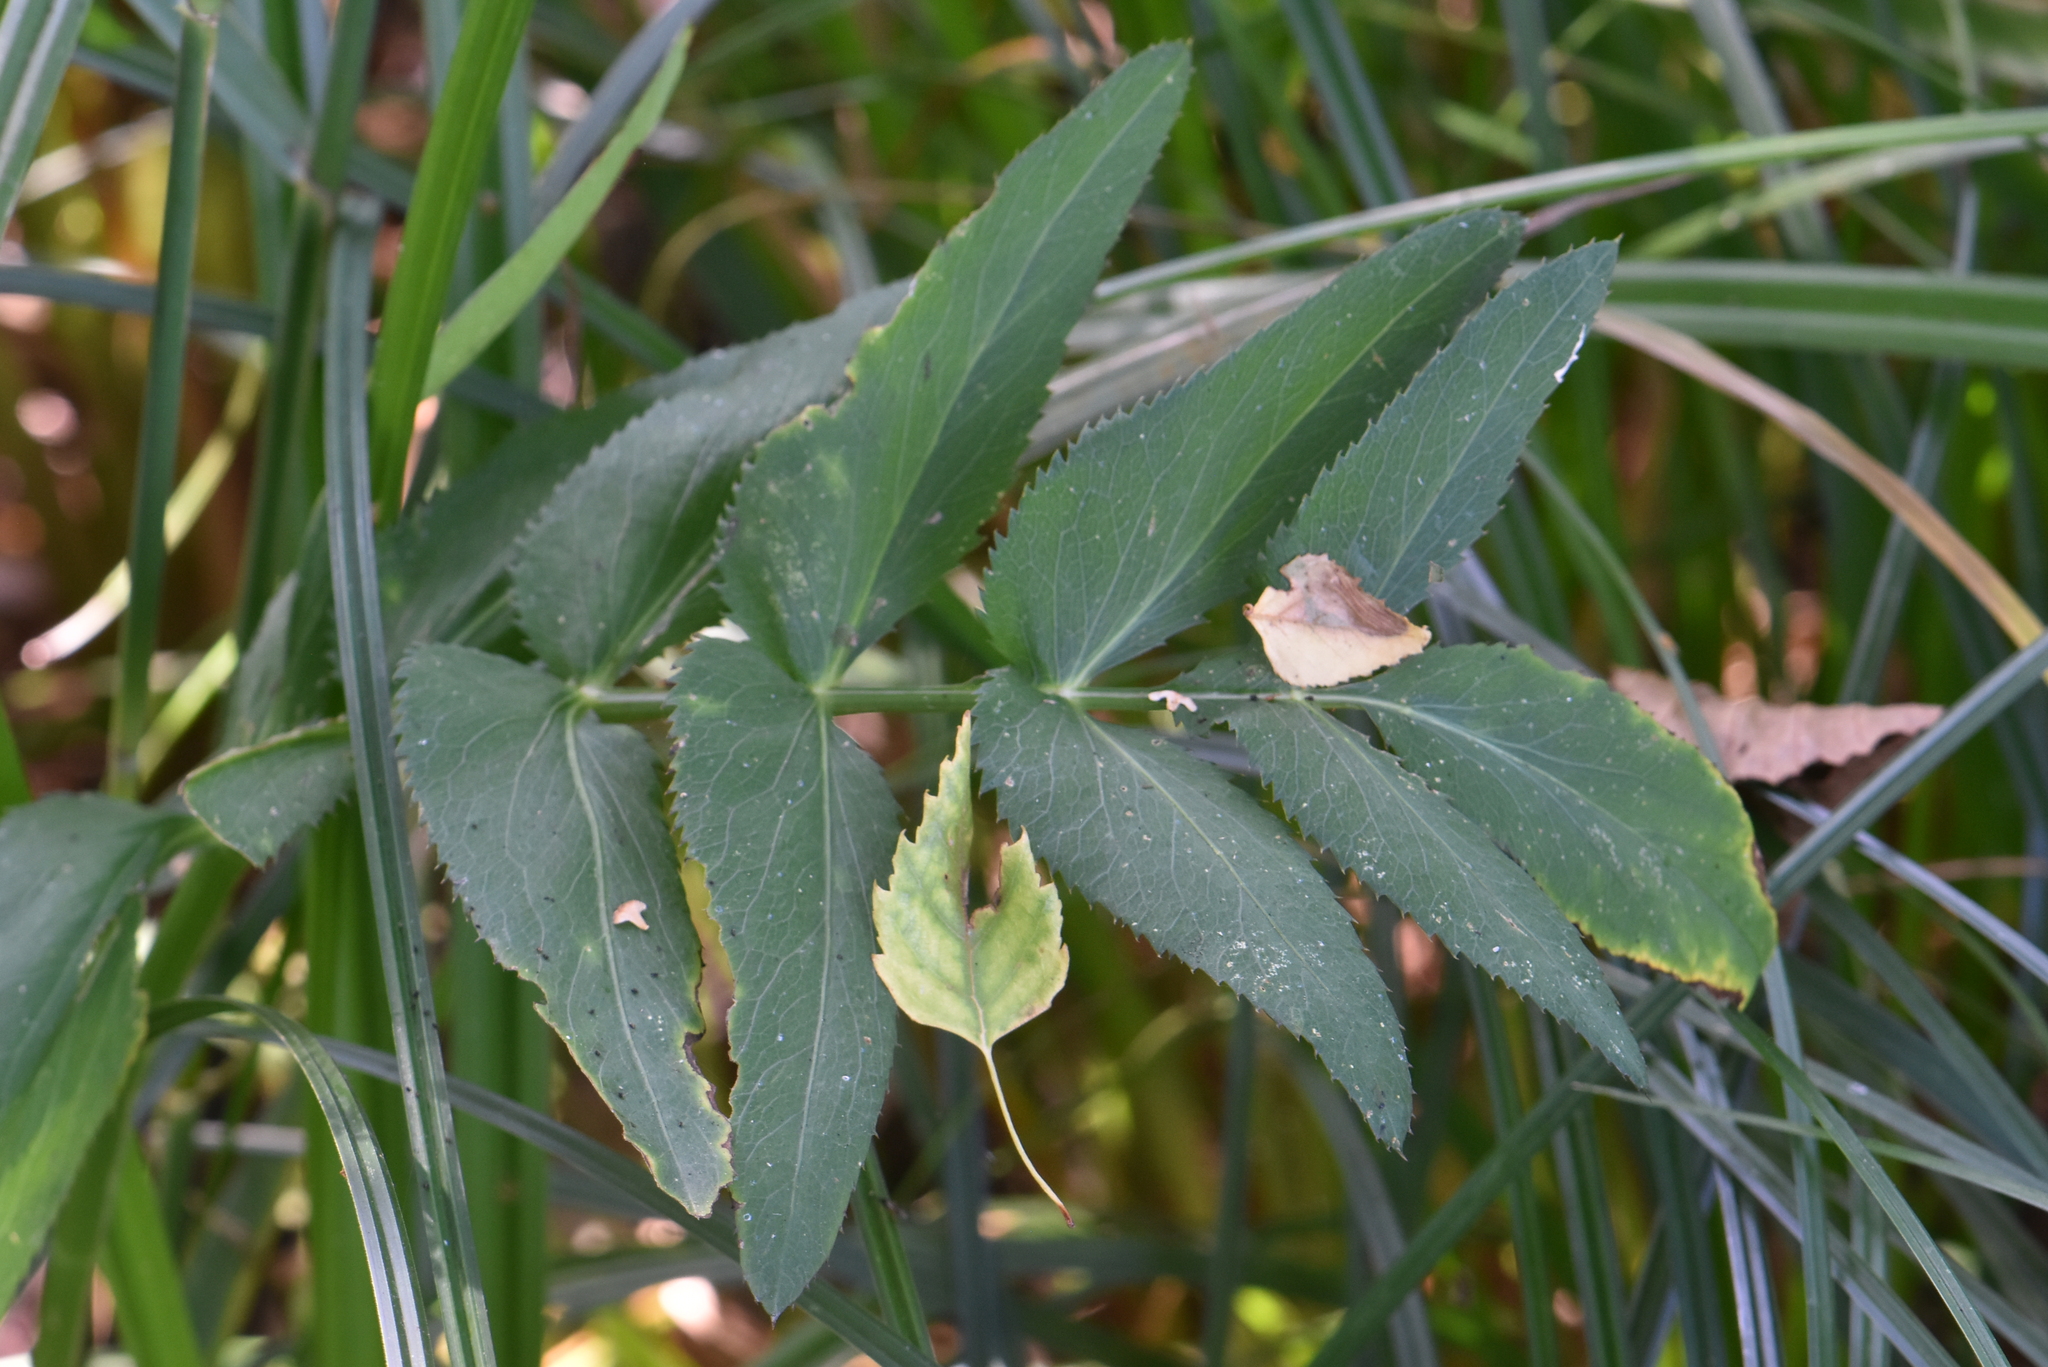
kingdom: Plantae
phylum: Tracheophyta
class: Magnoliopsida
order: Apiales
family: Apiaceae
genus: Sium
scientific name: Sium latifolium
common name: Greater water-parsnip
